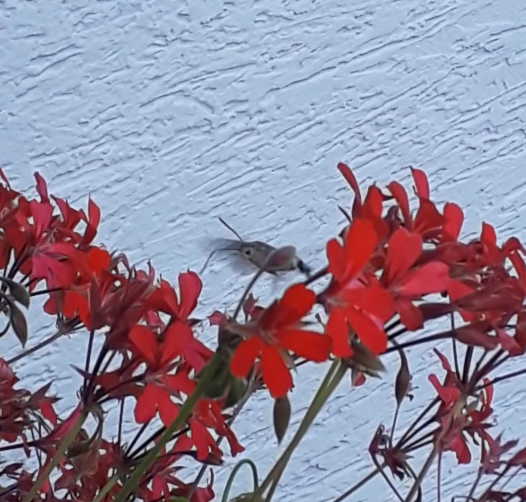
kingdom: Animalia
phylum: Arthropoda
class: Insecta
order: Lepidoptera
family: Sphingidae
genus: Macroglossum
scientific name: Macroglossum stellatarum
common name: Humming-bird hawk-moth
